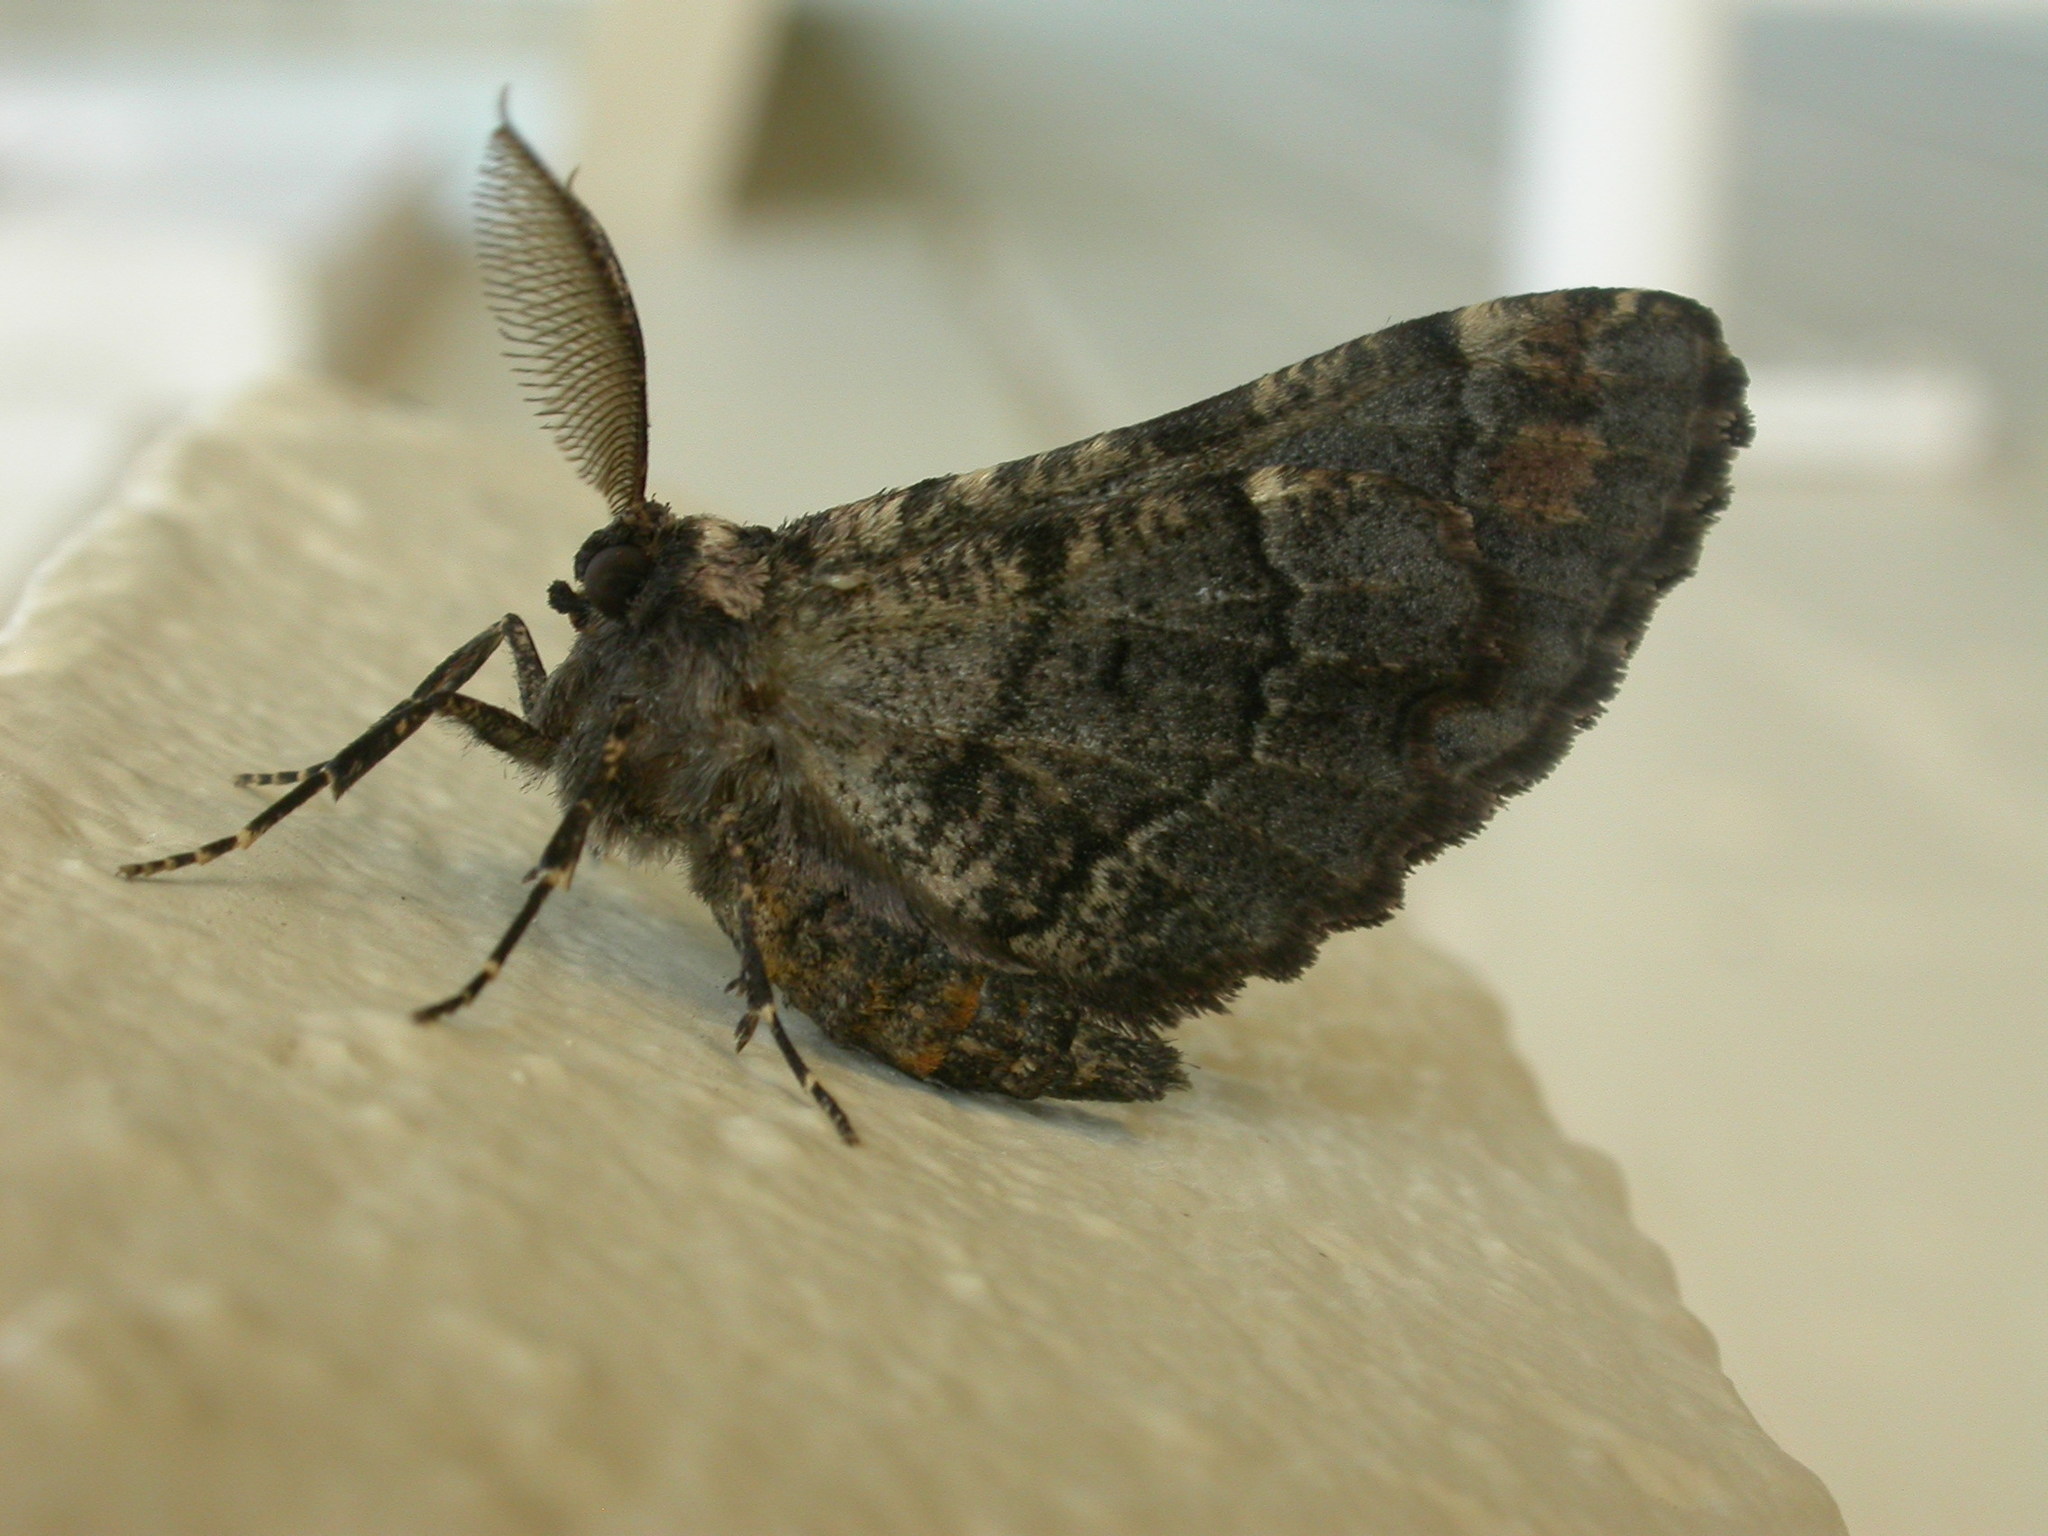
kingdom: Animalia
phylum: Arthropoda
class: Insecta
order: Lepidoptera
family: Geometridae
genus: Pholodes
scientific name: Pholodes sinistraria
